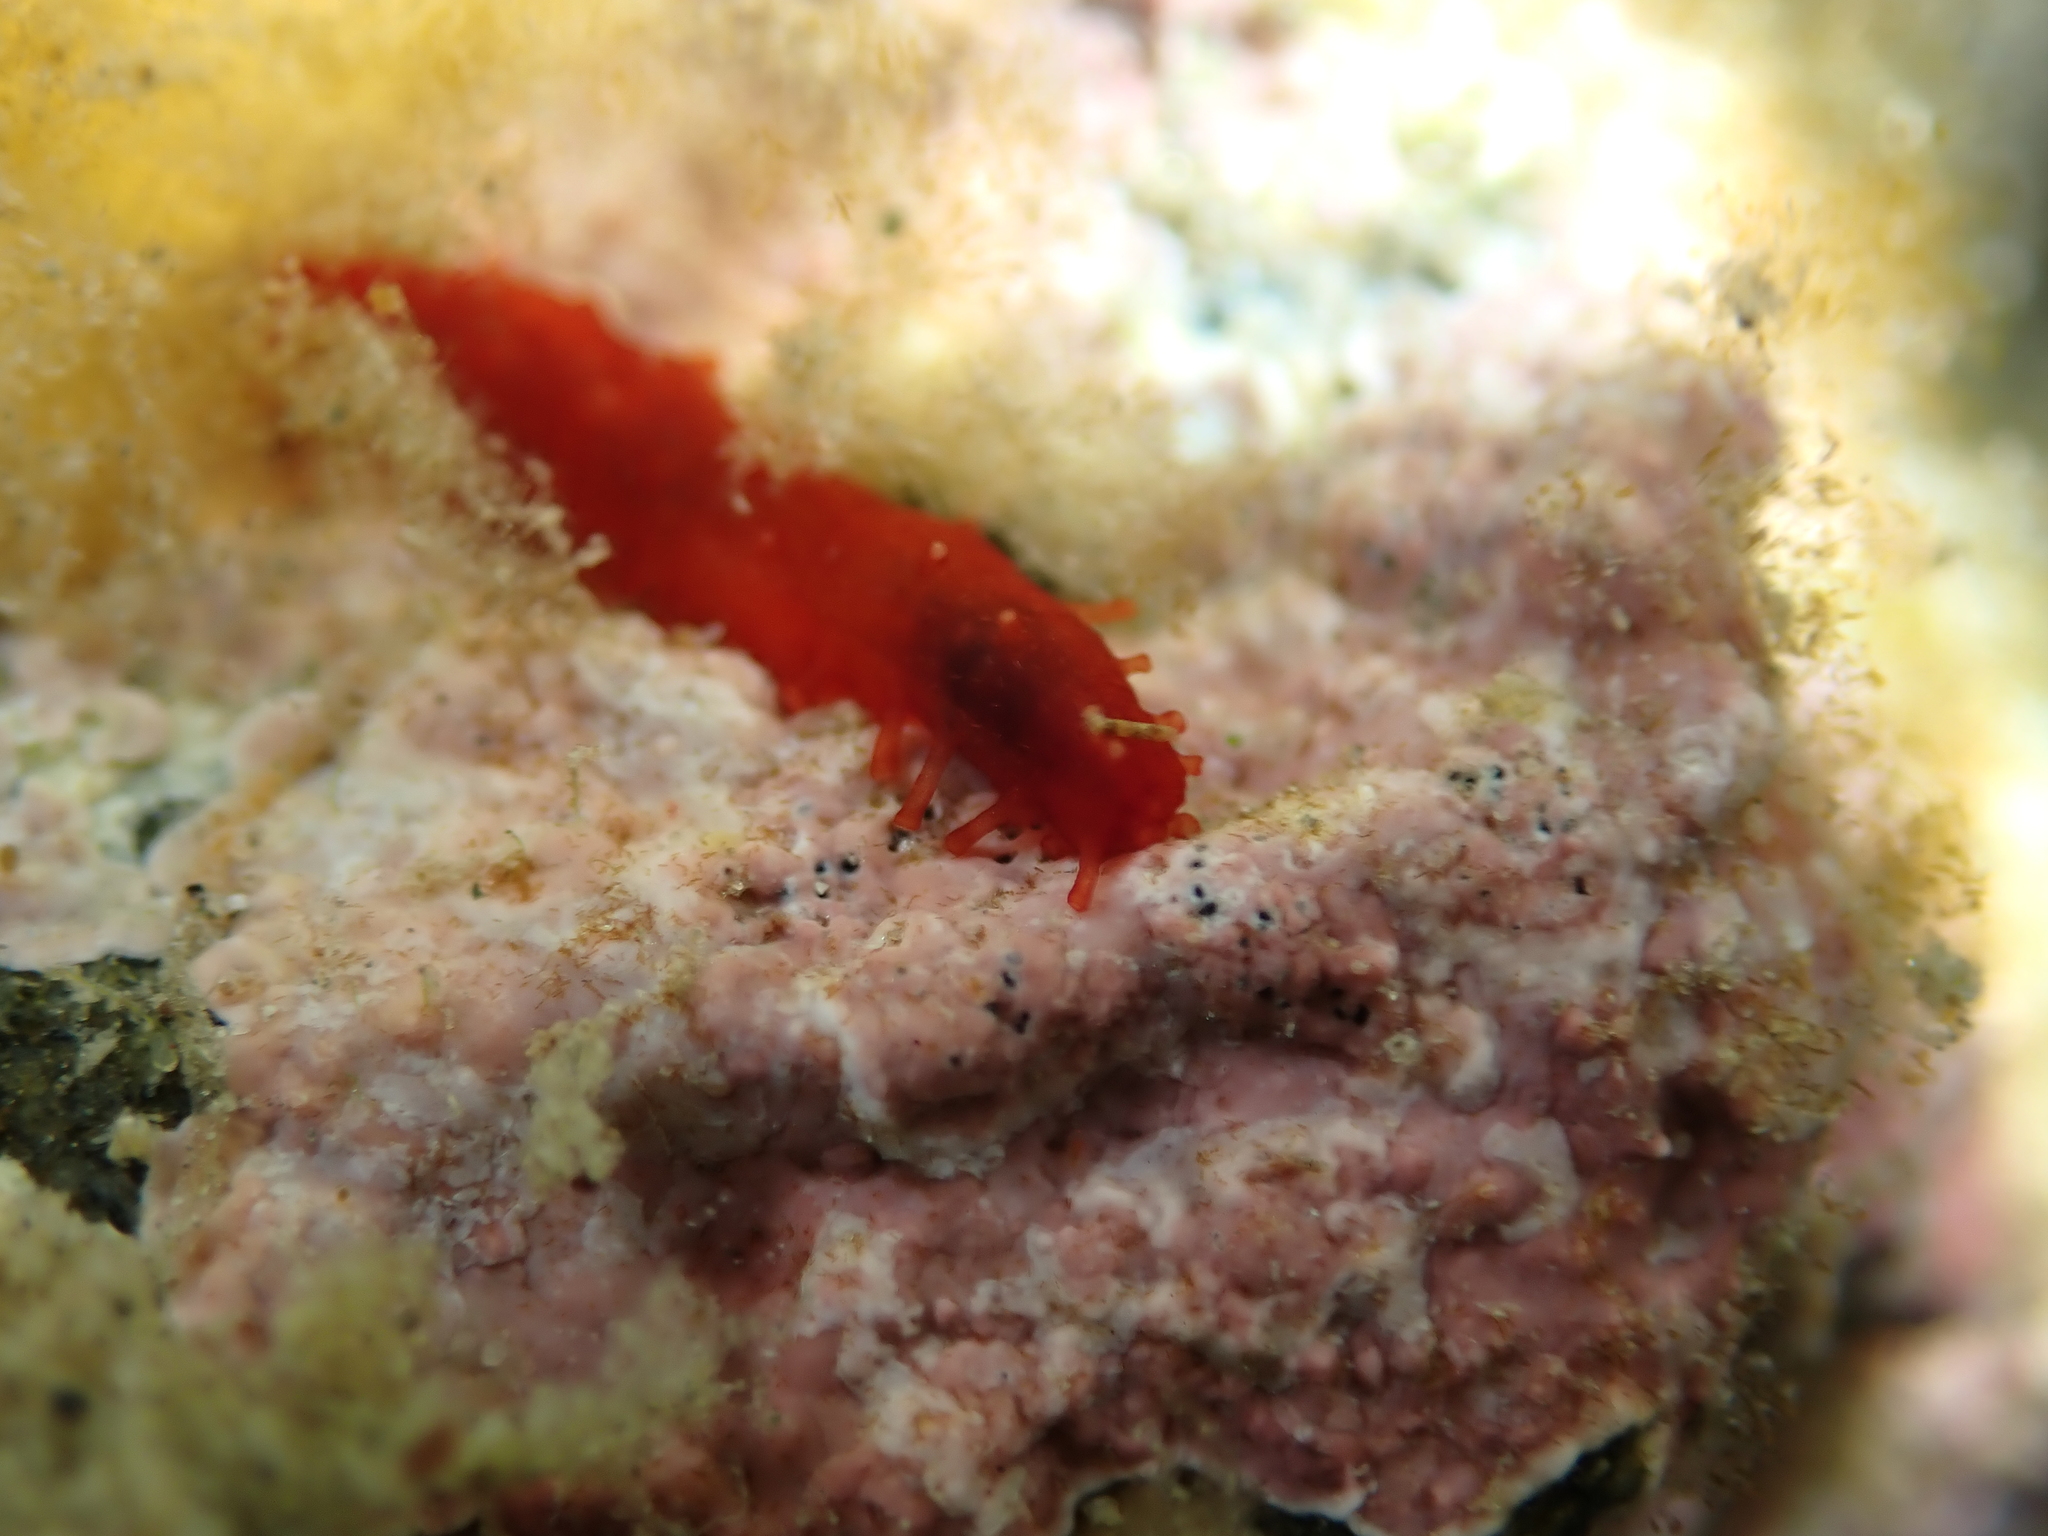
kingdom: Animalia
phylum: Echinodermata
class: Holothuroidea
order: Dendrochirotida
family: Cucumariidae
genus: Squamocnus
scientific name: Squamocnus brevidentis
